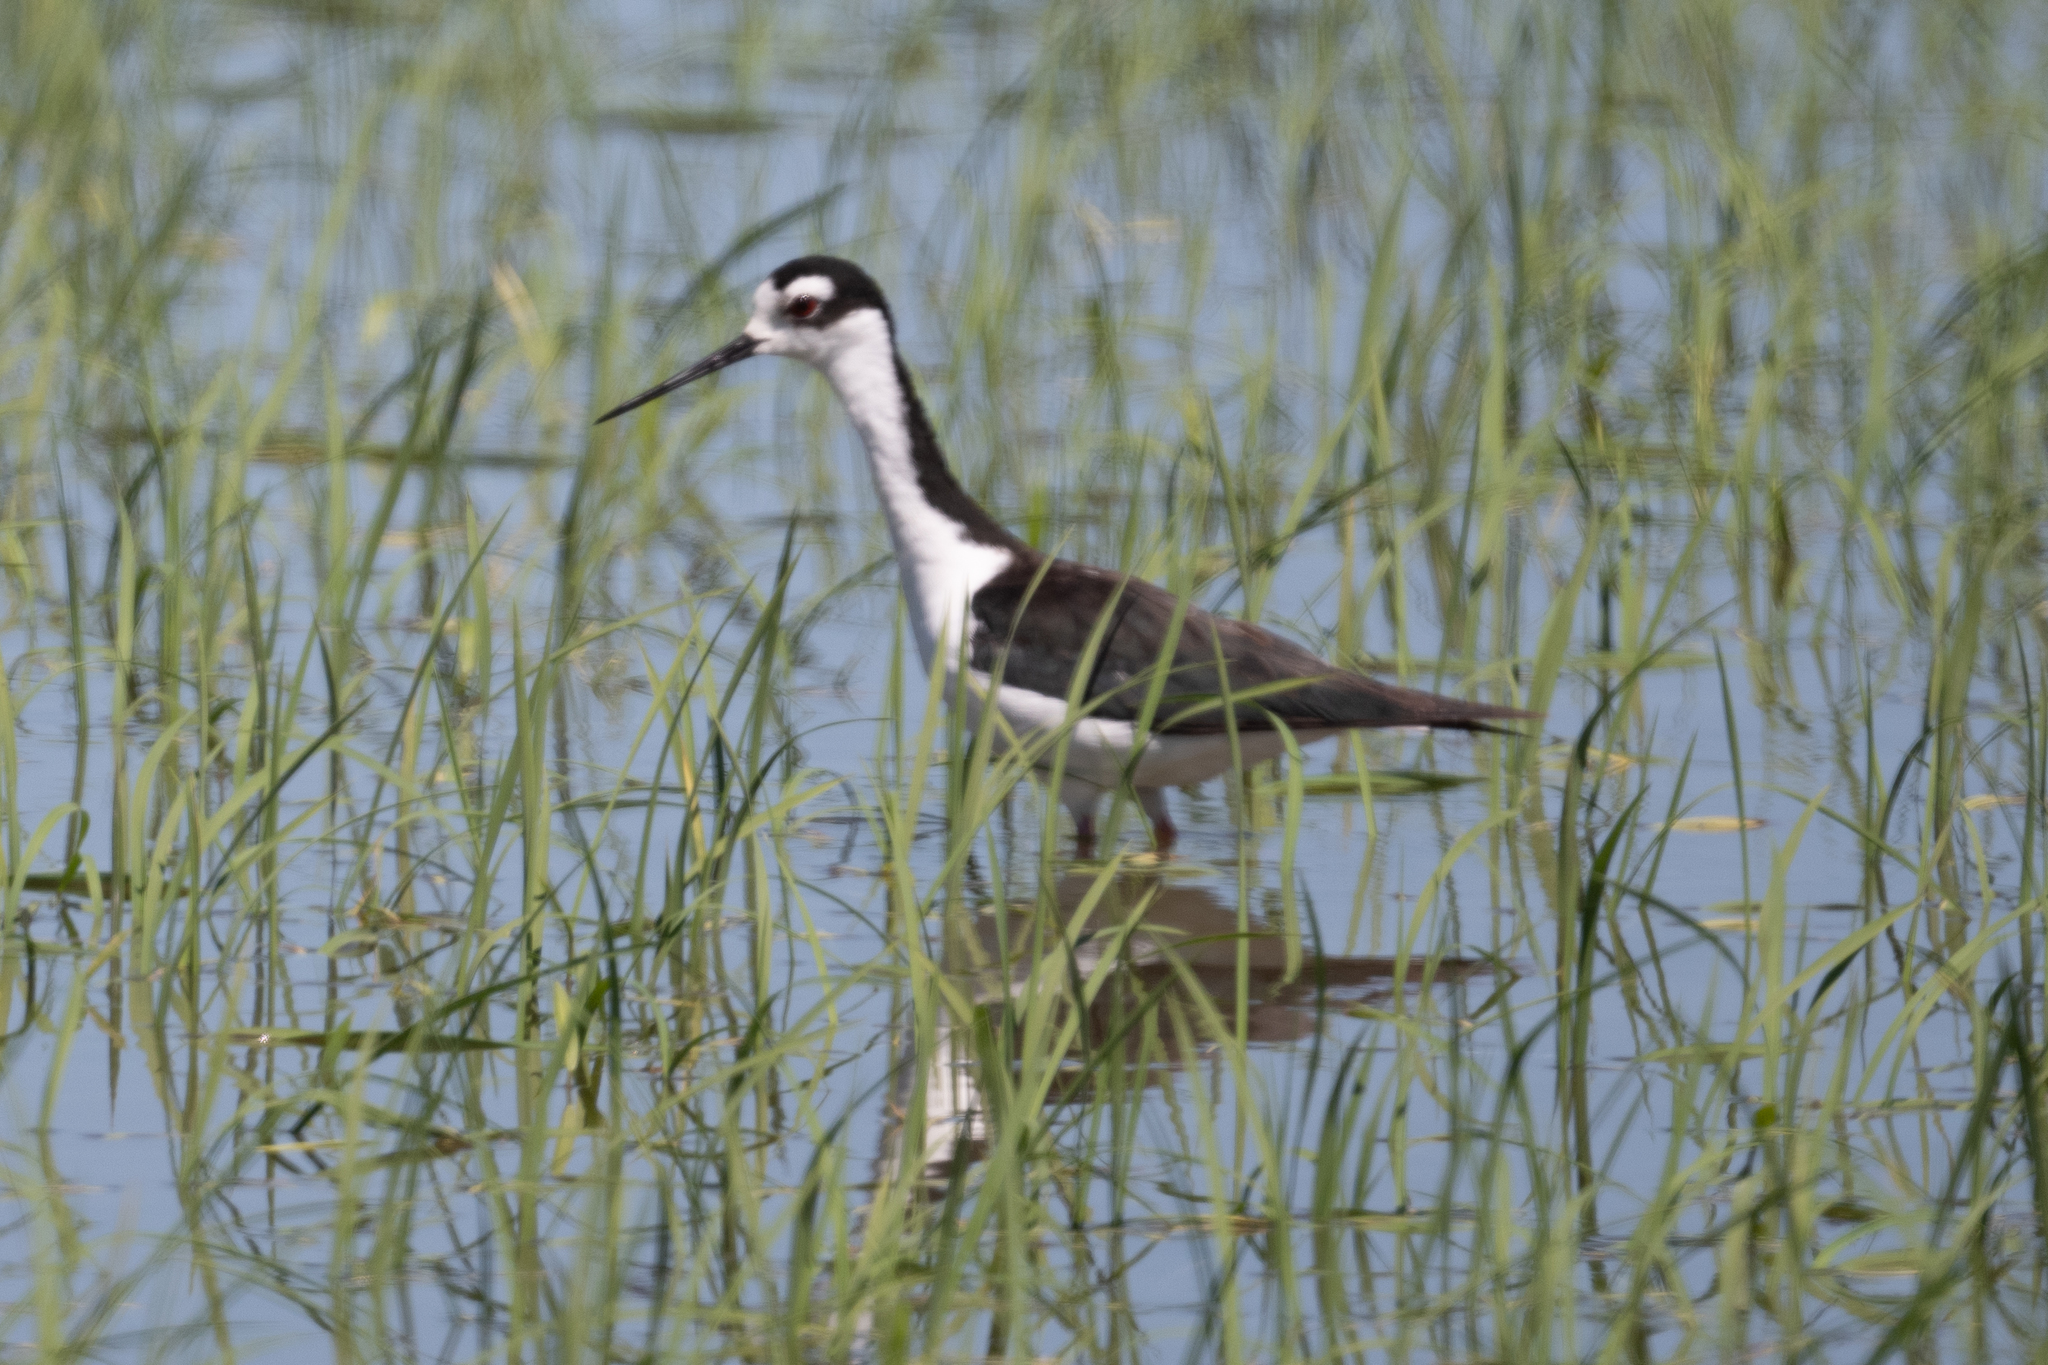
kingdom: Animalia
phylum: Chordata
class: Aves
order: Charadriiformes
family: Recurvirostridae
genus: Himantopus
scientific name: Himantopus mexicanus
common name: Black-necked stilt
